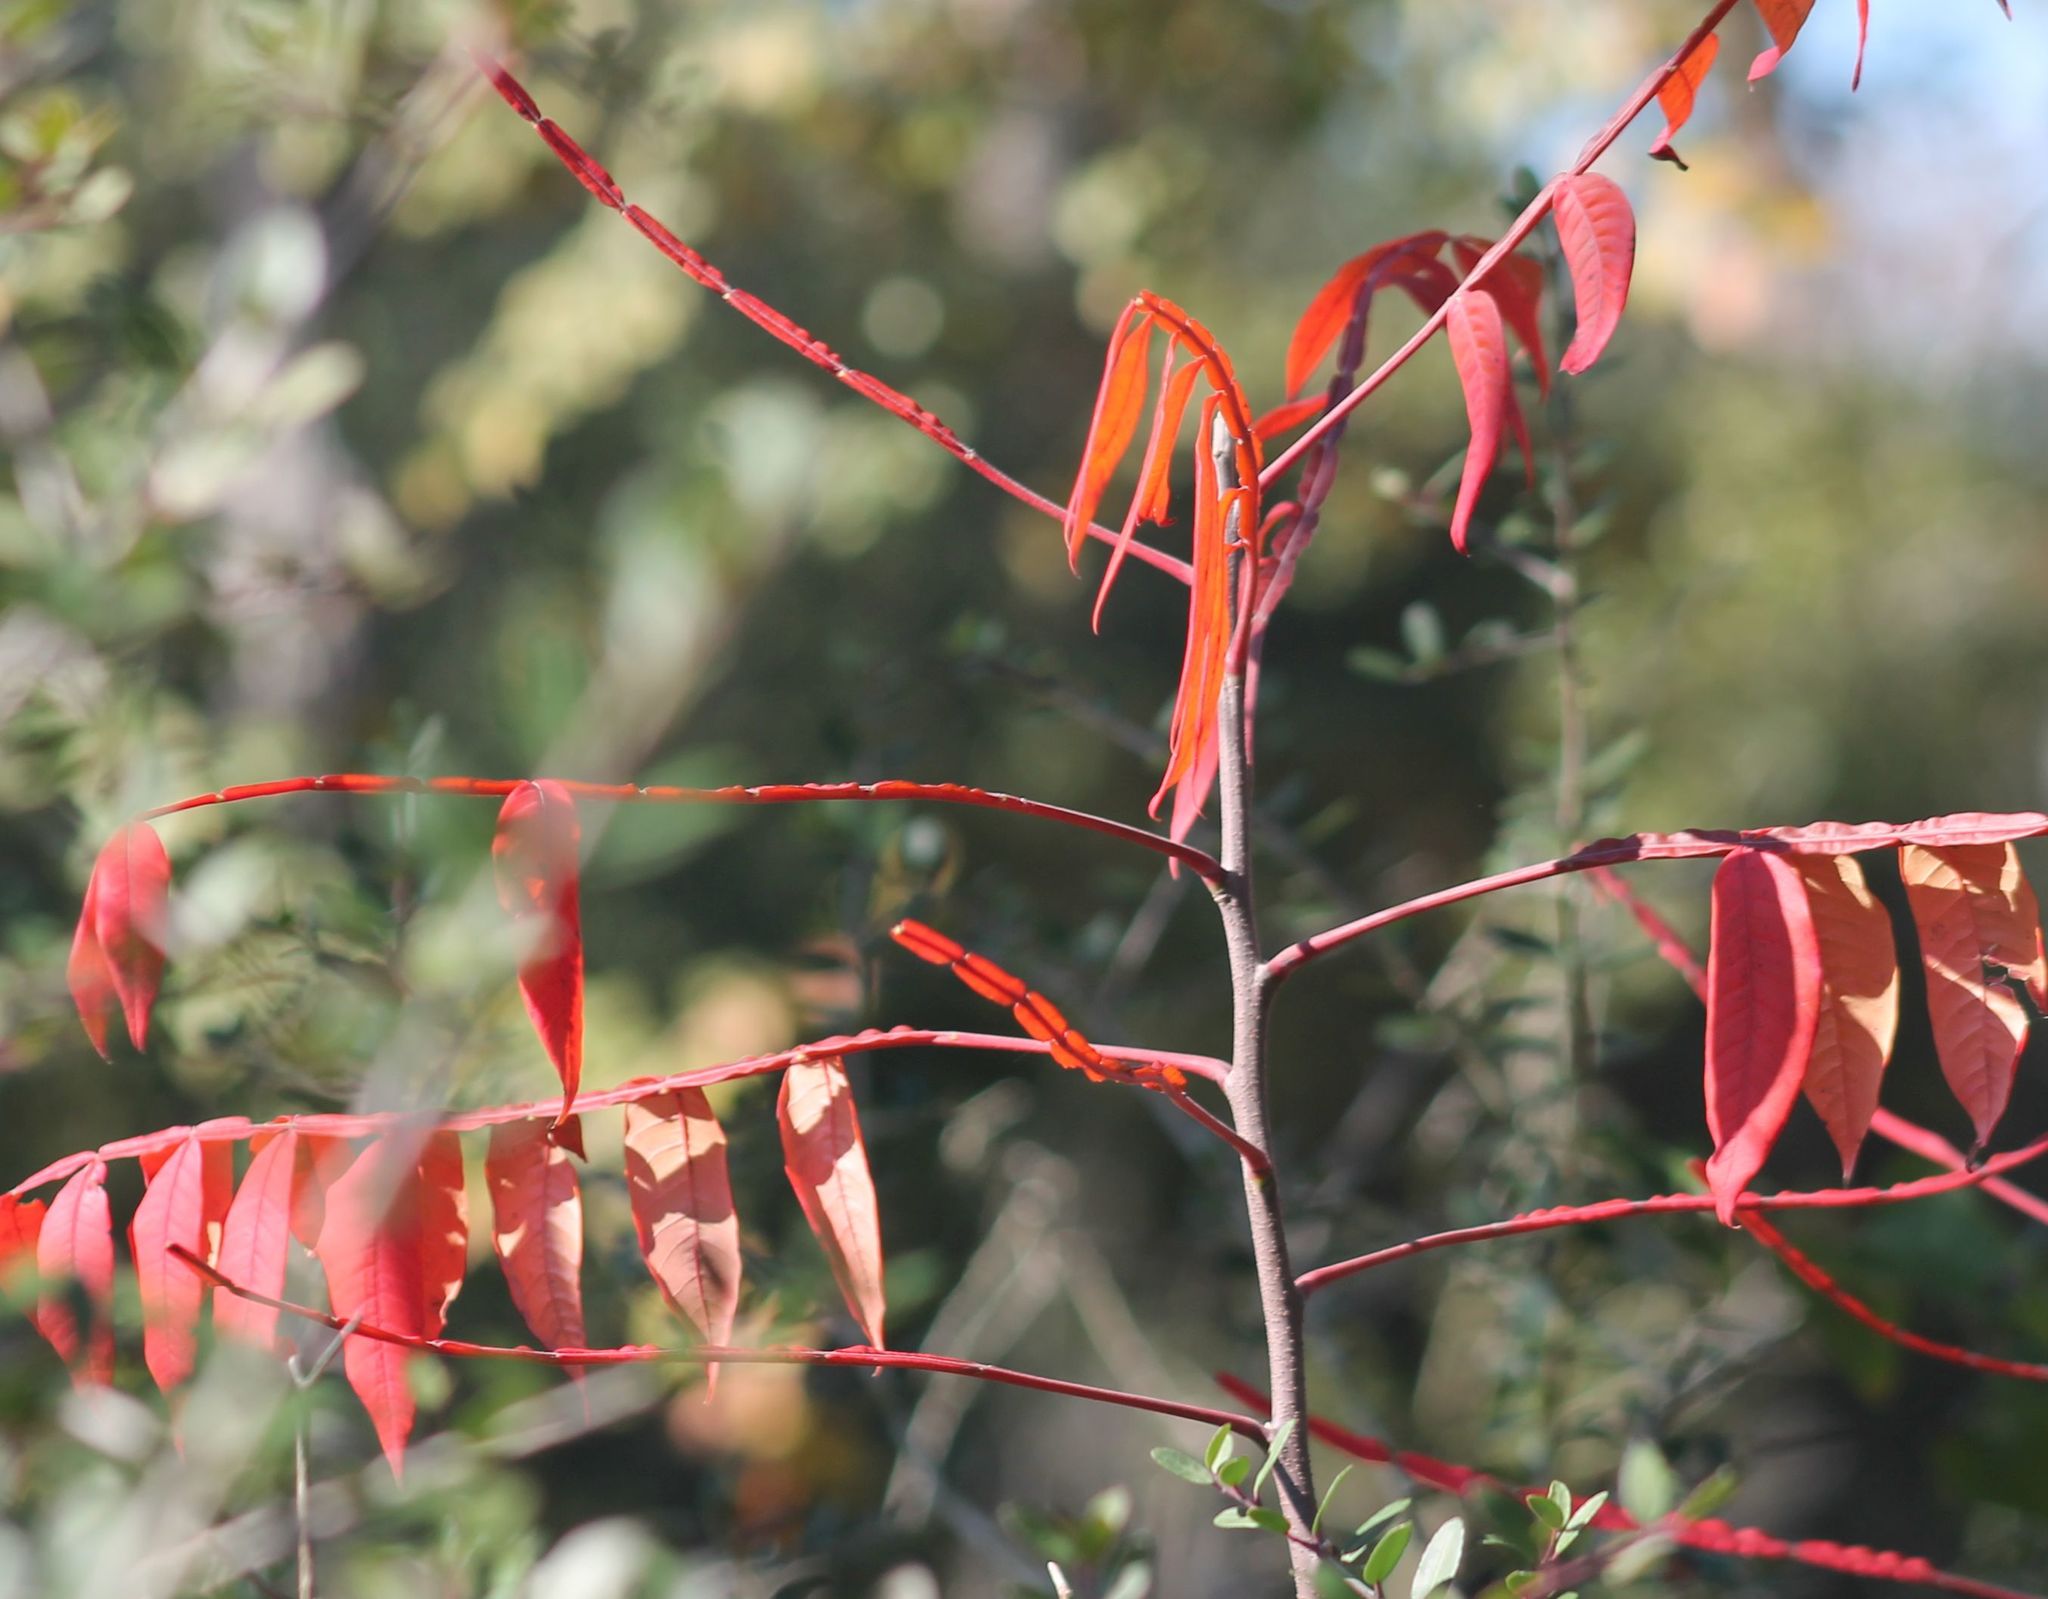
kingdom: Plantae
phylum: Tracheophyta
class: Magnoliopsida
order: Sapindales
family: Anacardiaceae
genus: Rhus
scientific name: Rhus copallina
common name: Shining sumac
